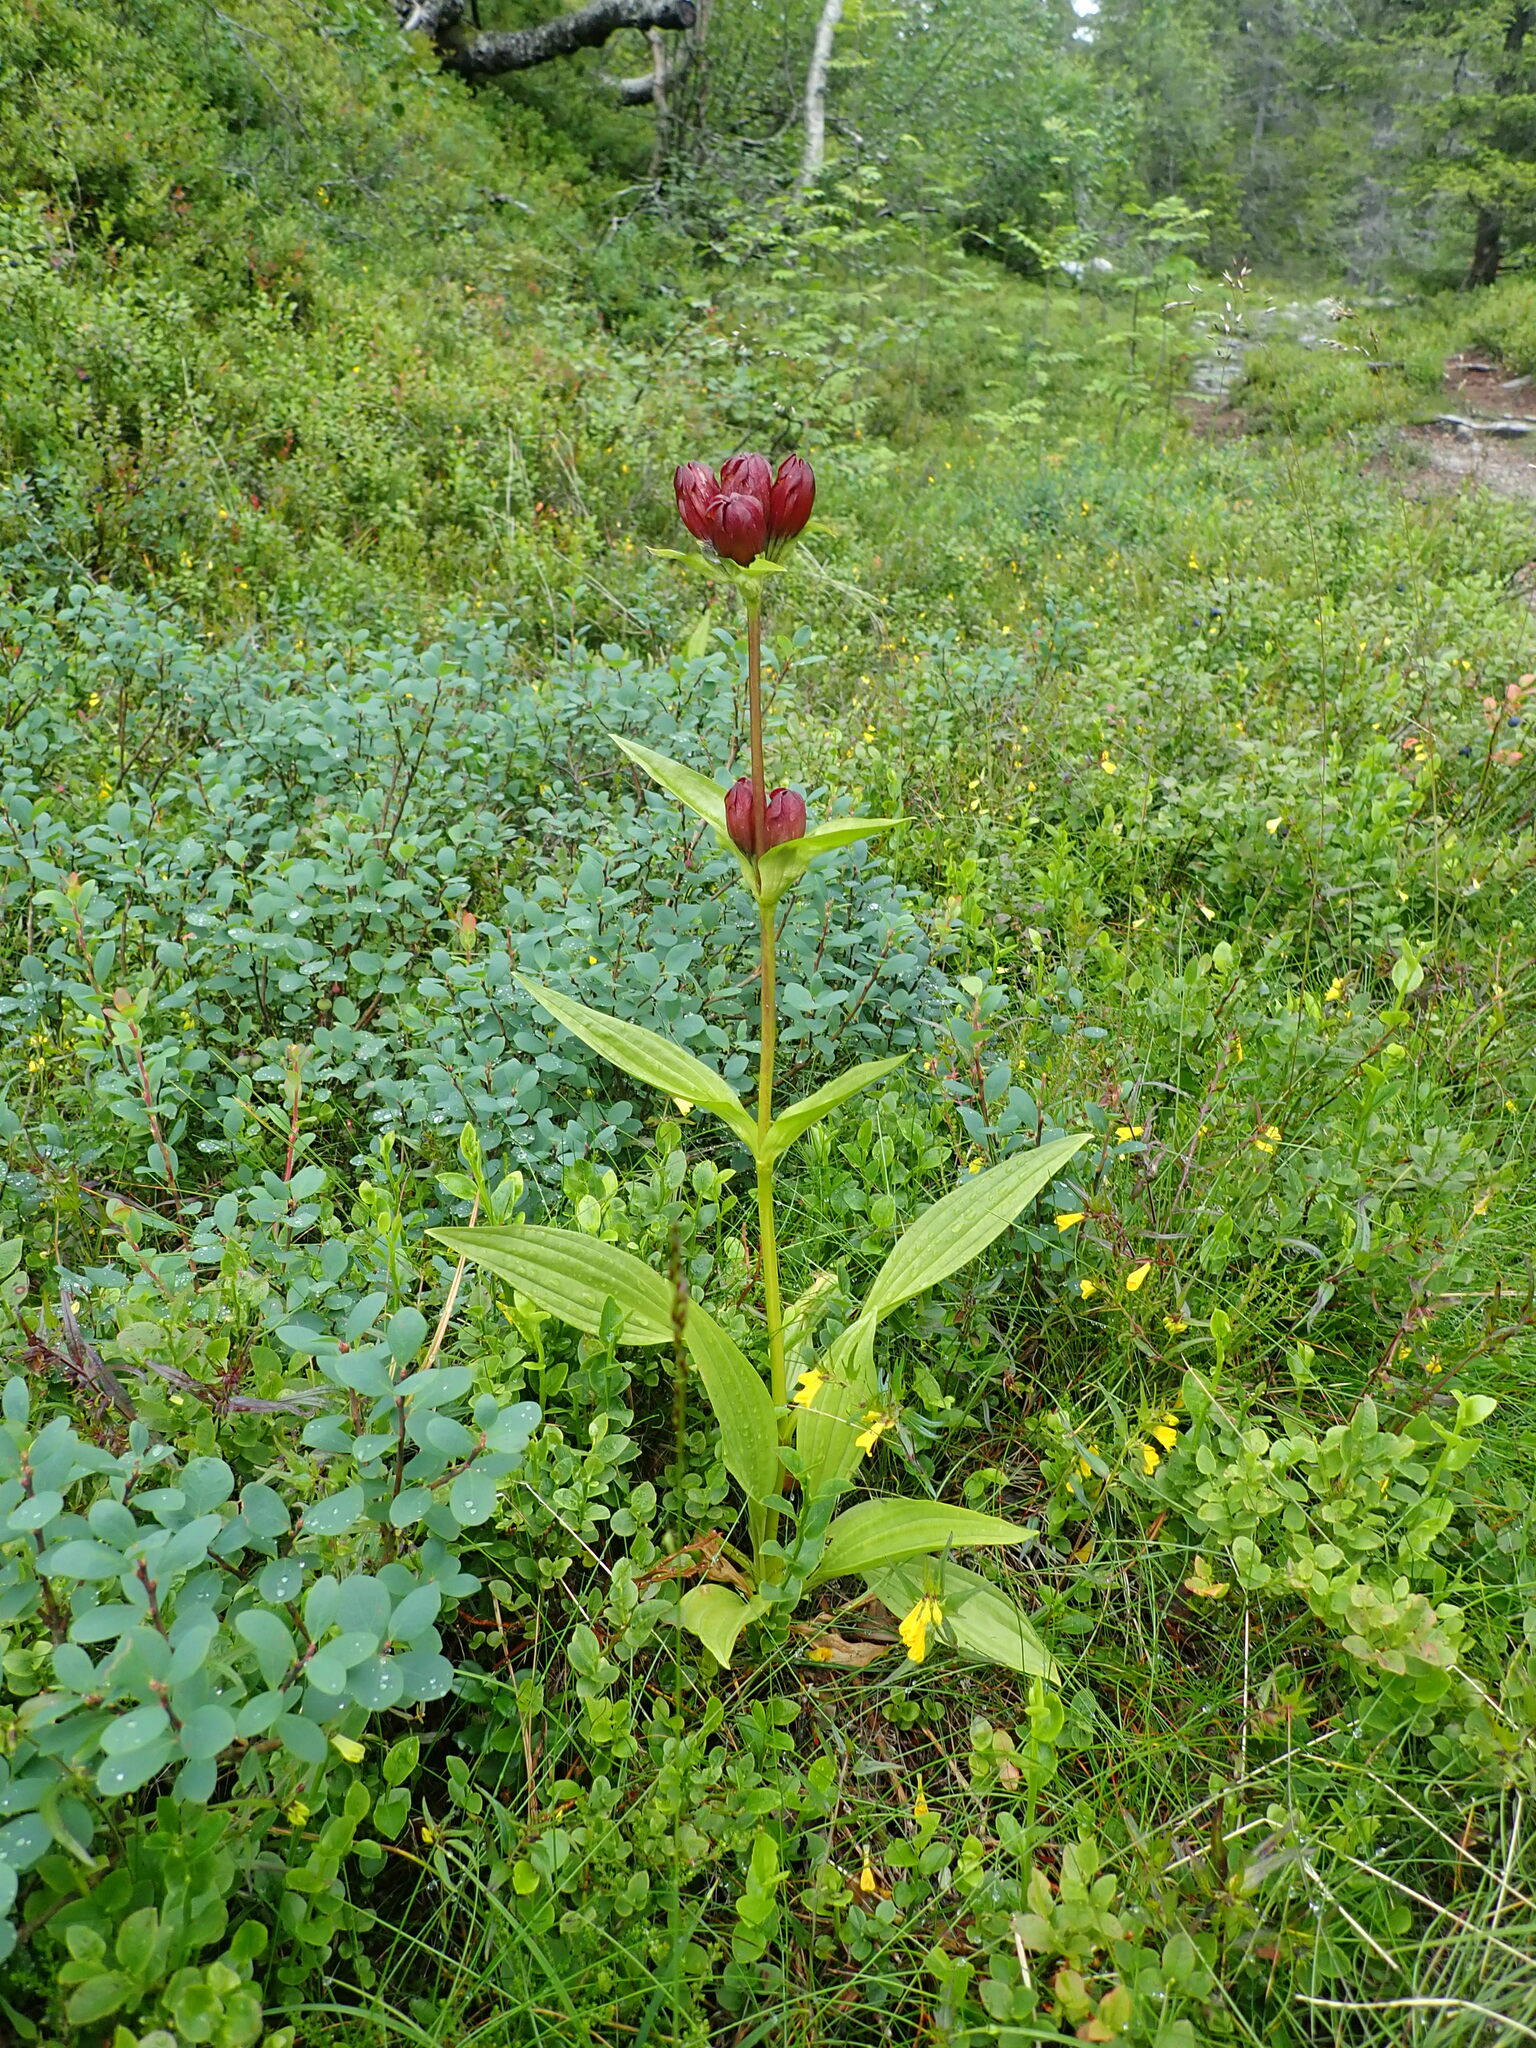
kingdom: Plantae
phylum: Tracheophyta
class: Magnoliopsida
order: Gentianales
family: Gentianaceae
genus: Gentiana
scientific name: Gentiana purpurea
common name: Purple gentian
